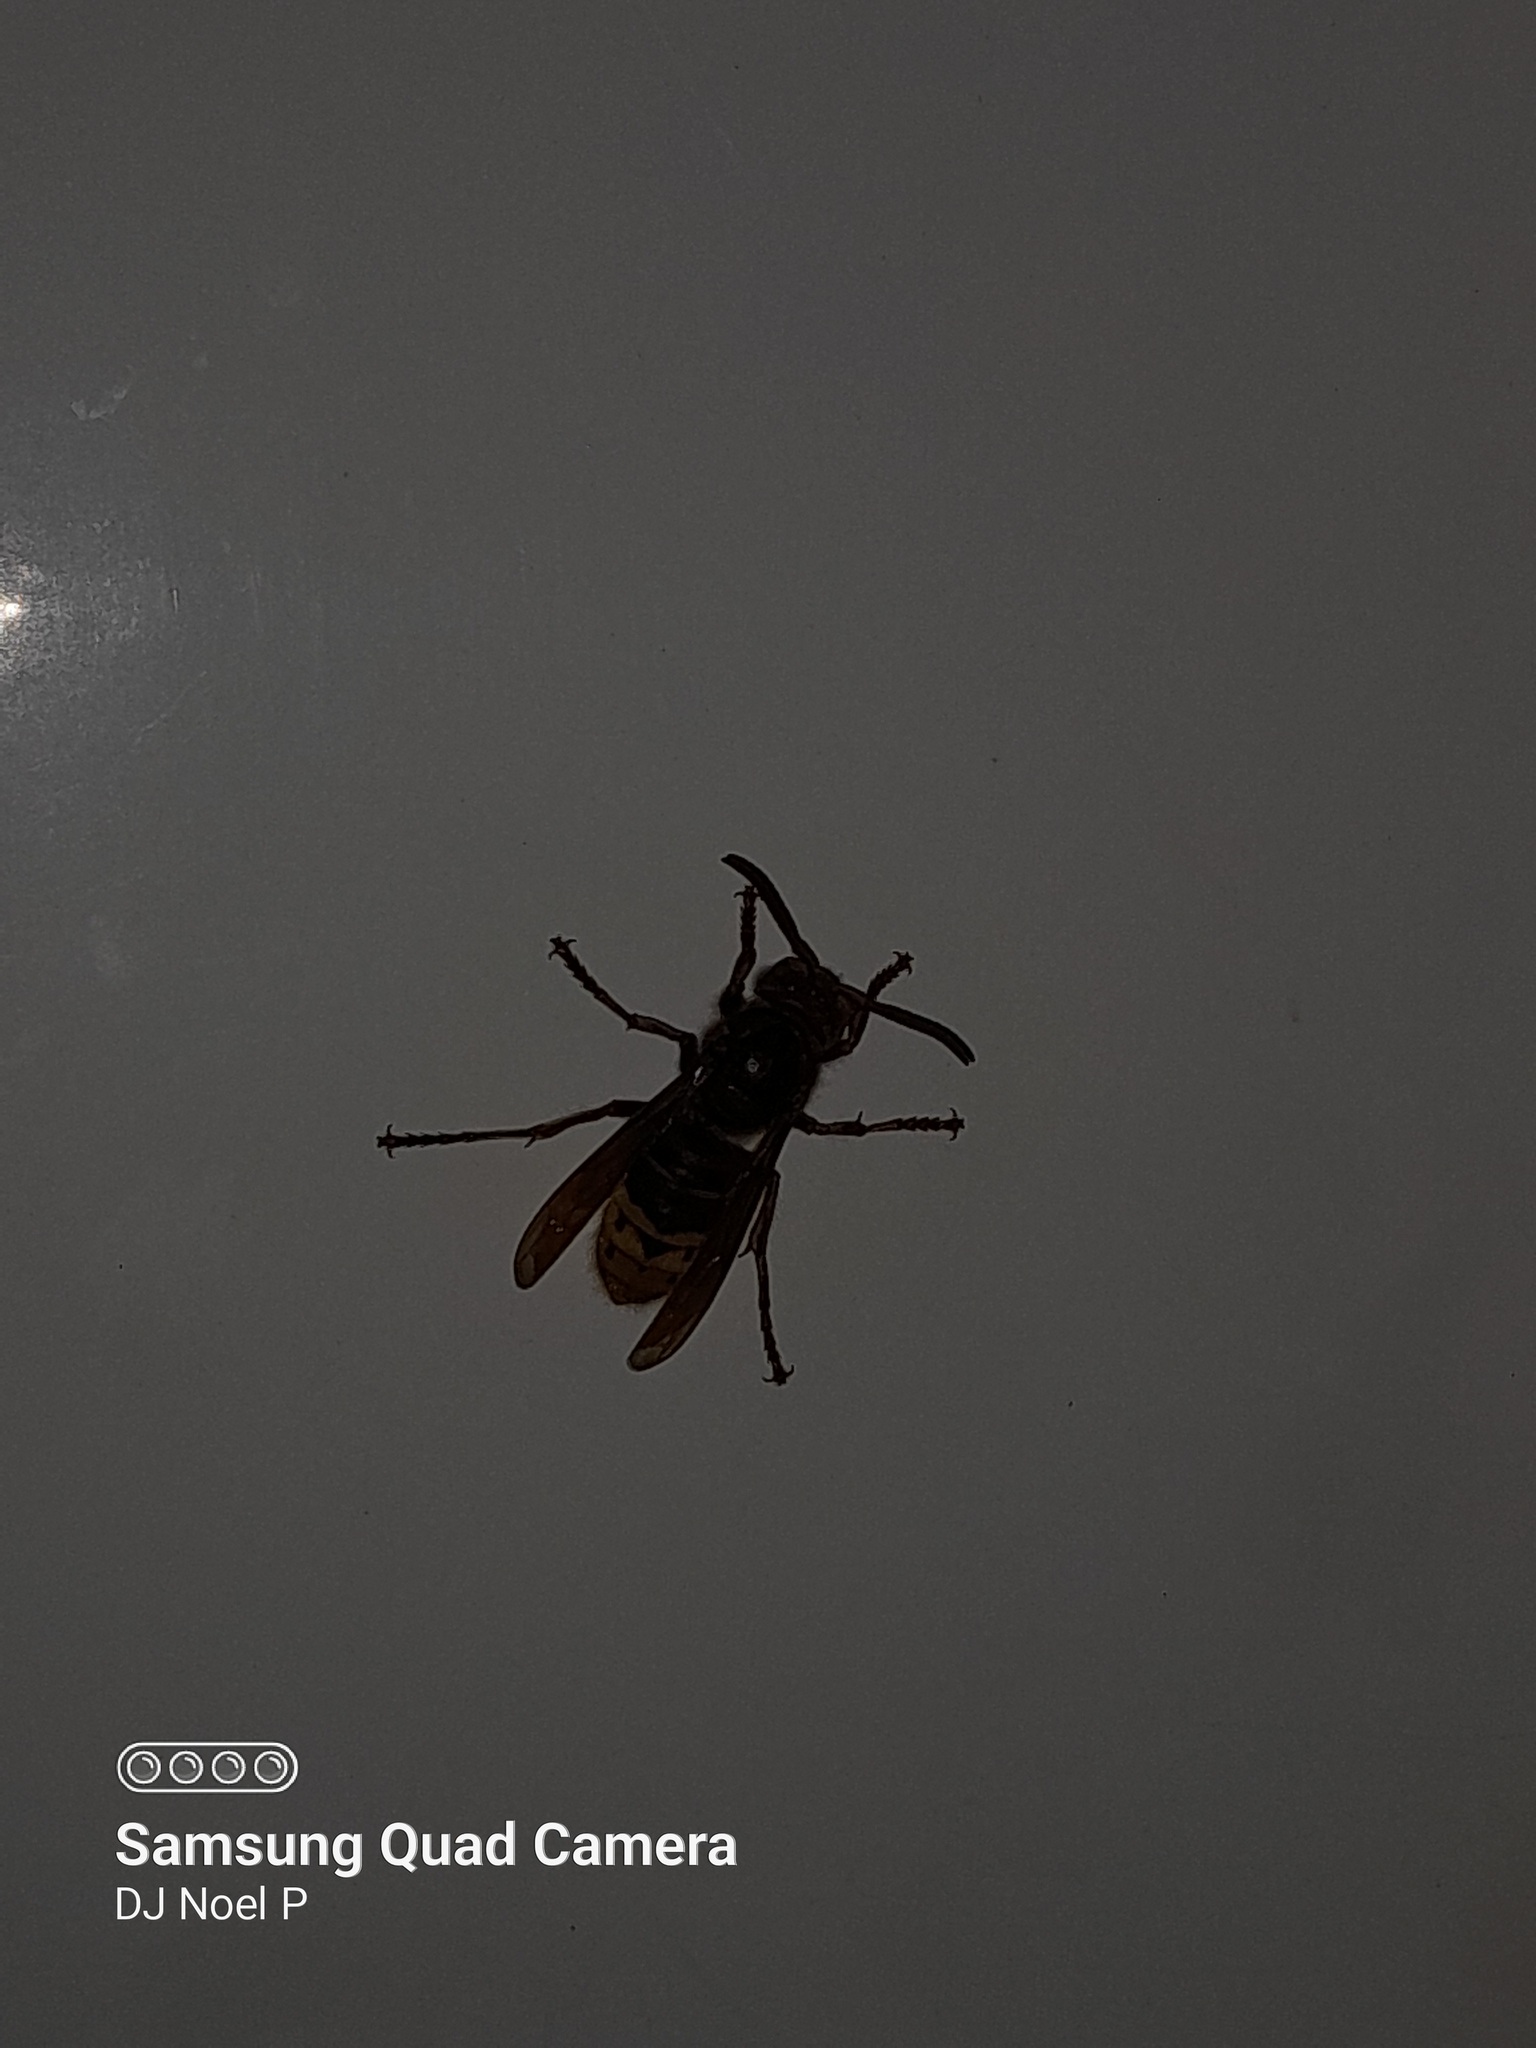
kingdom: Animalia
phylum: Arthropoda
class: Insecta
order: Hymenoptera
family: Vespidae
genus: Vespa
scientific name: Vespa crabro
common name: Hornet
